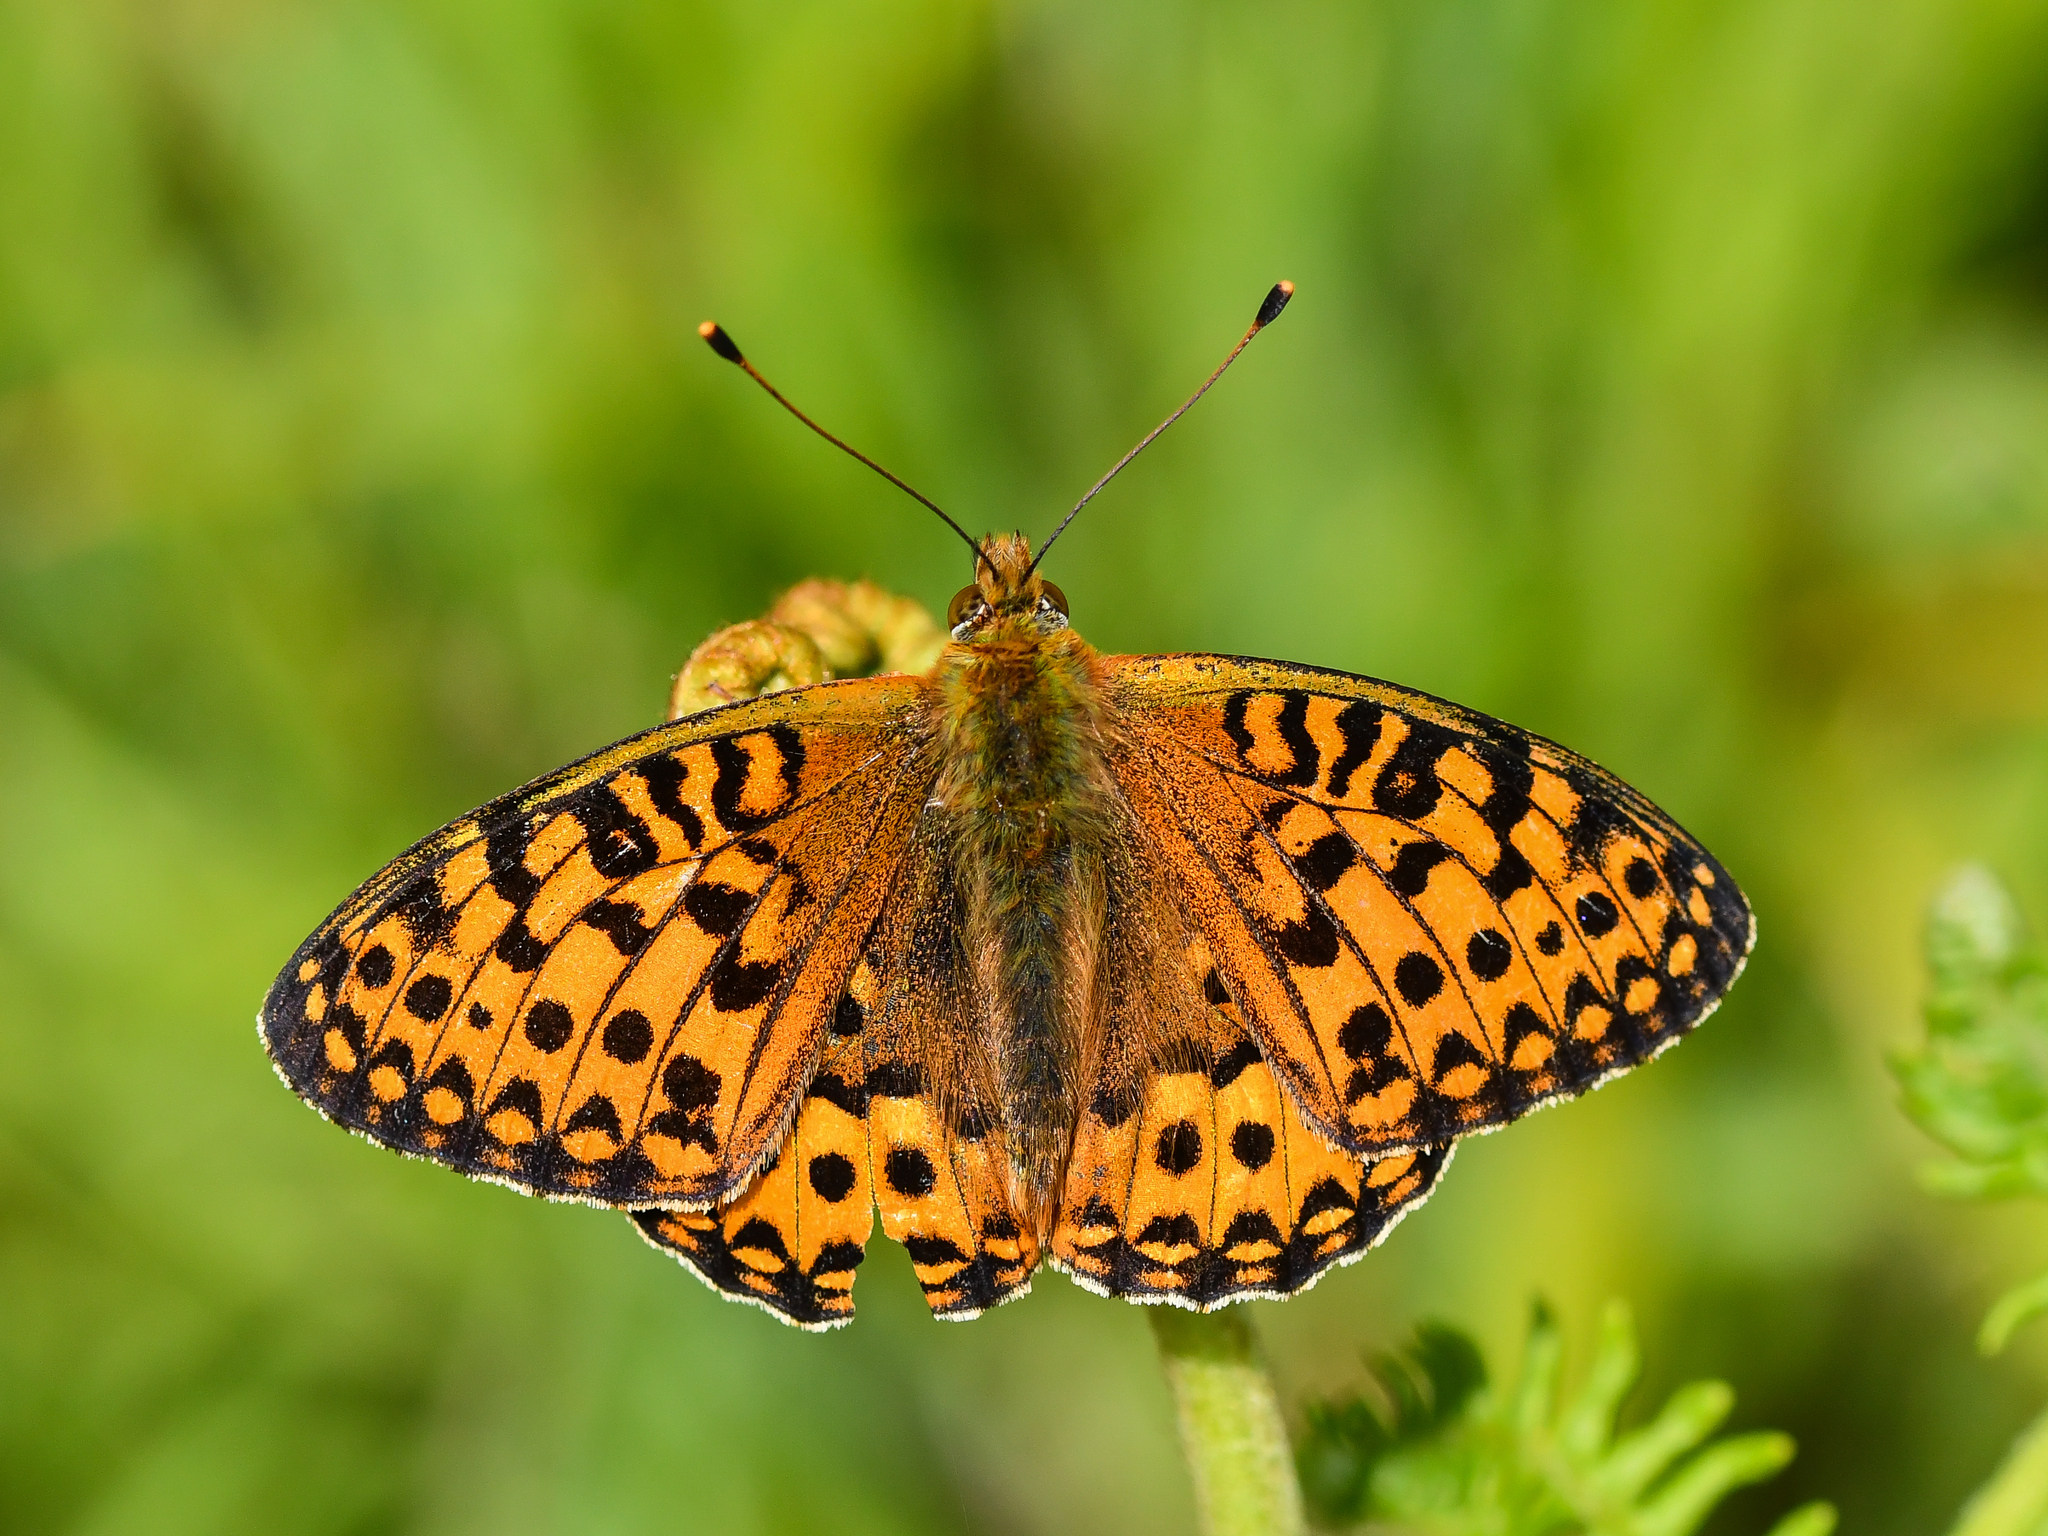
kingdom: Animalia
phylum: Arthropoda
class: Insecta
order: Lepidoptera
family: Nymphalidae
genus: Speyeria
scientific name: Speyeria aglaja
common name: Dark green fritillary
